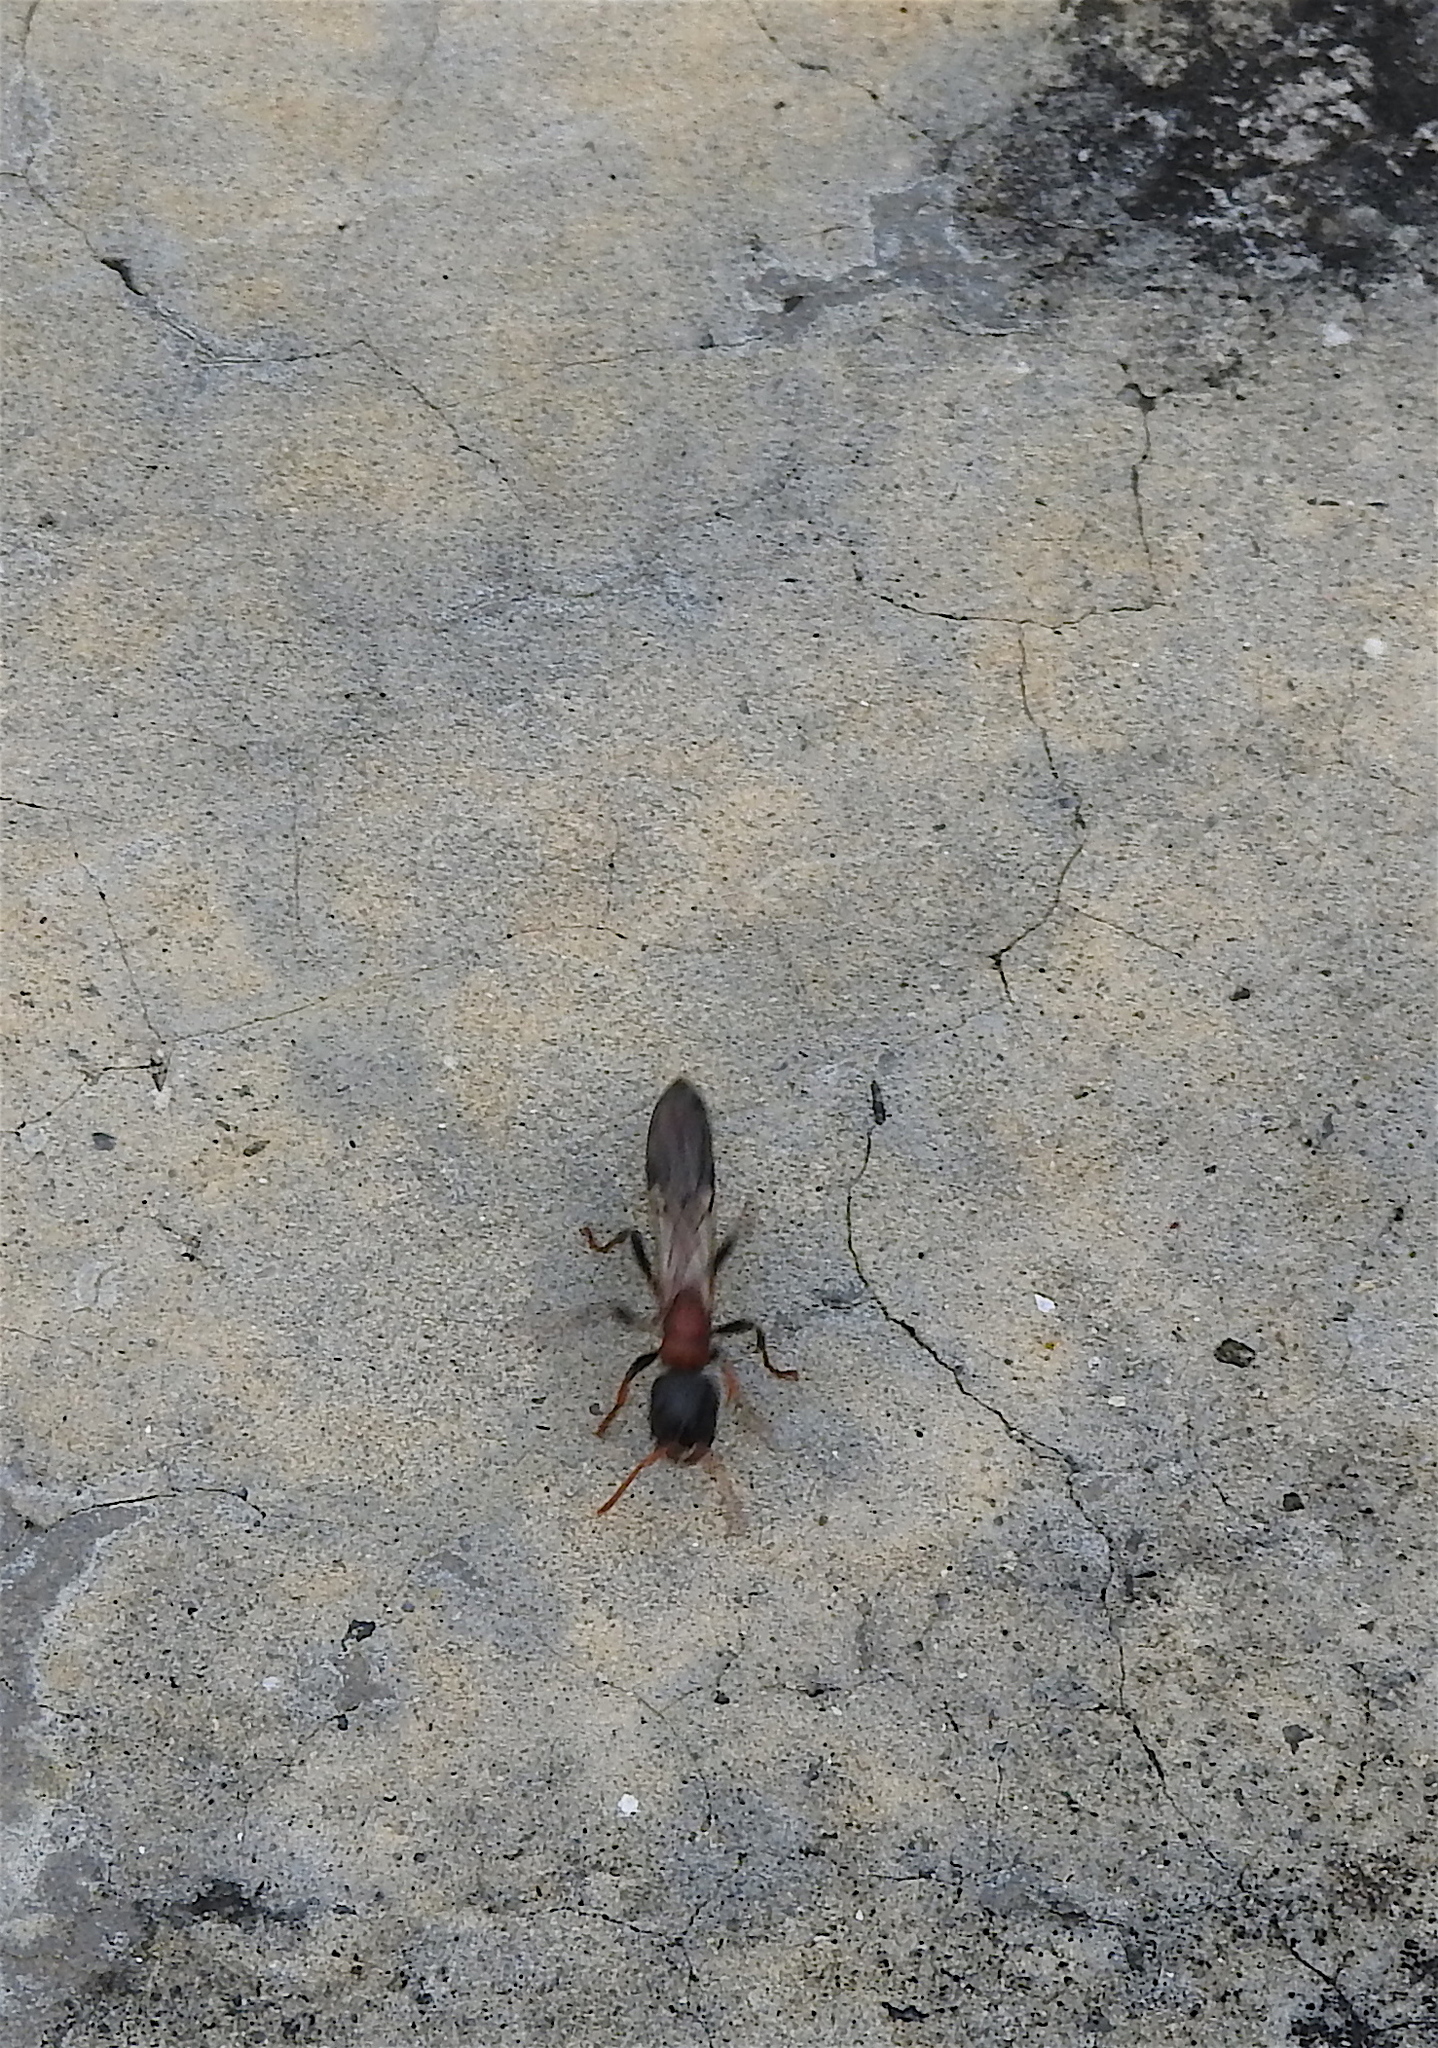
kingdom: Animalia
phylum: Arthropoda
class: Insecta
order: Hymenoptera
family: Formicidae
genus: Tetraponera
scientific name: Tetraponera rufonigra
